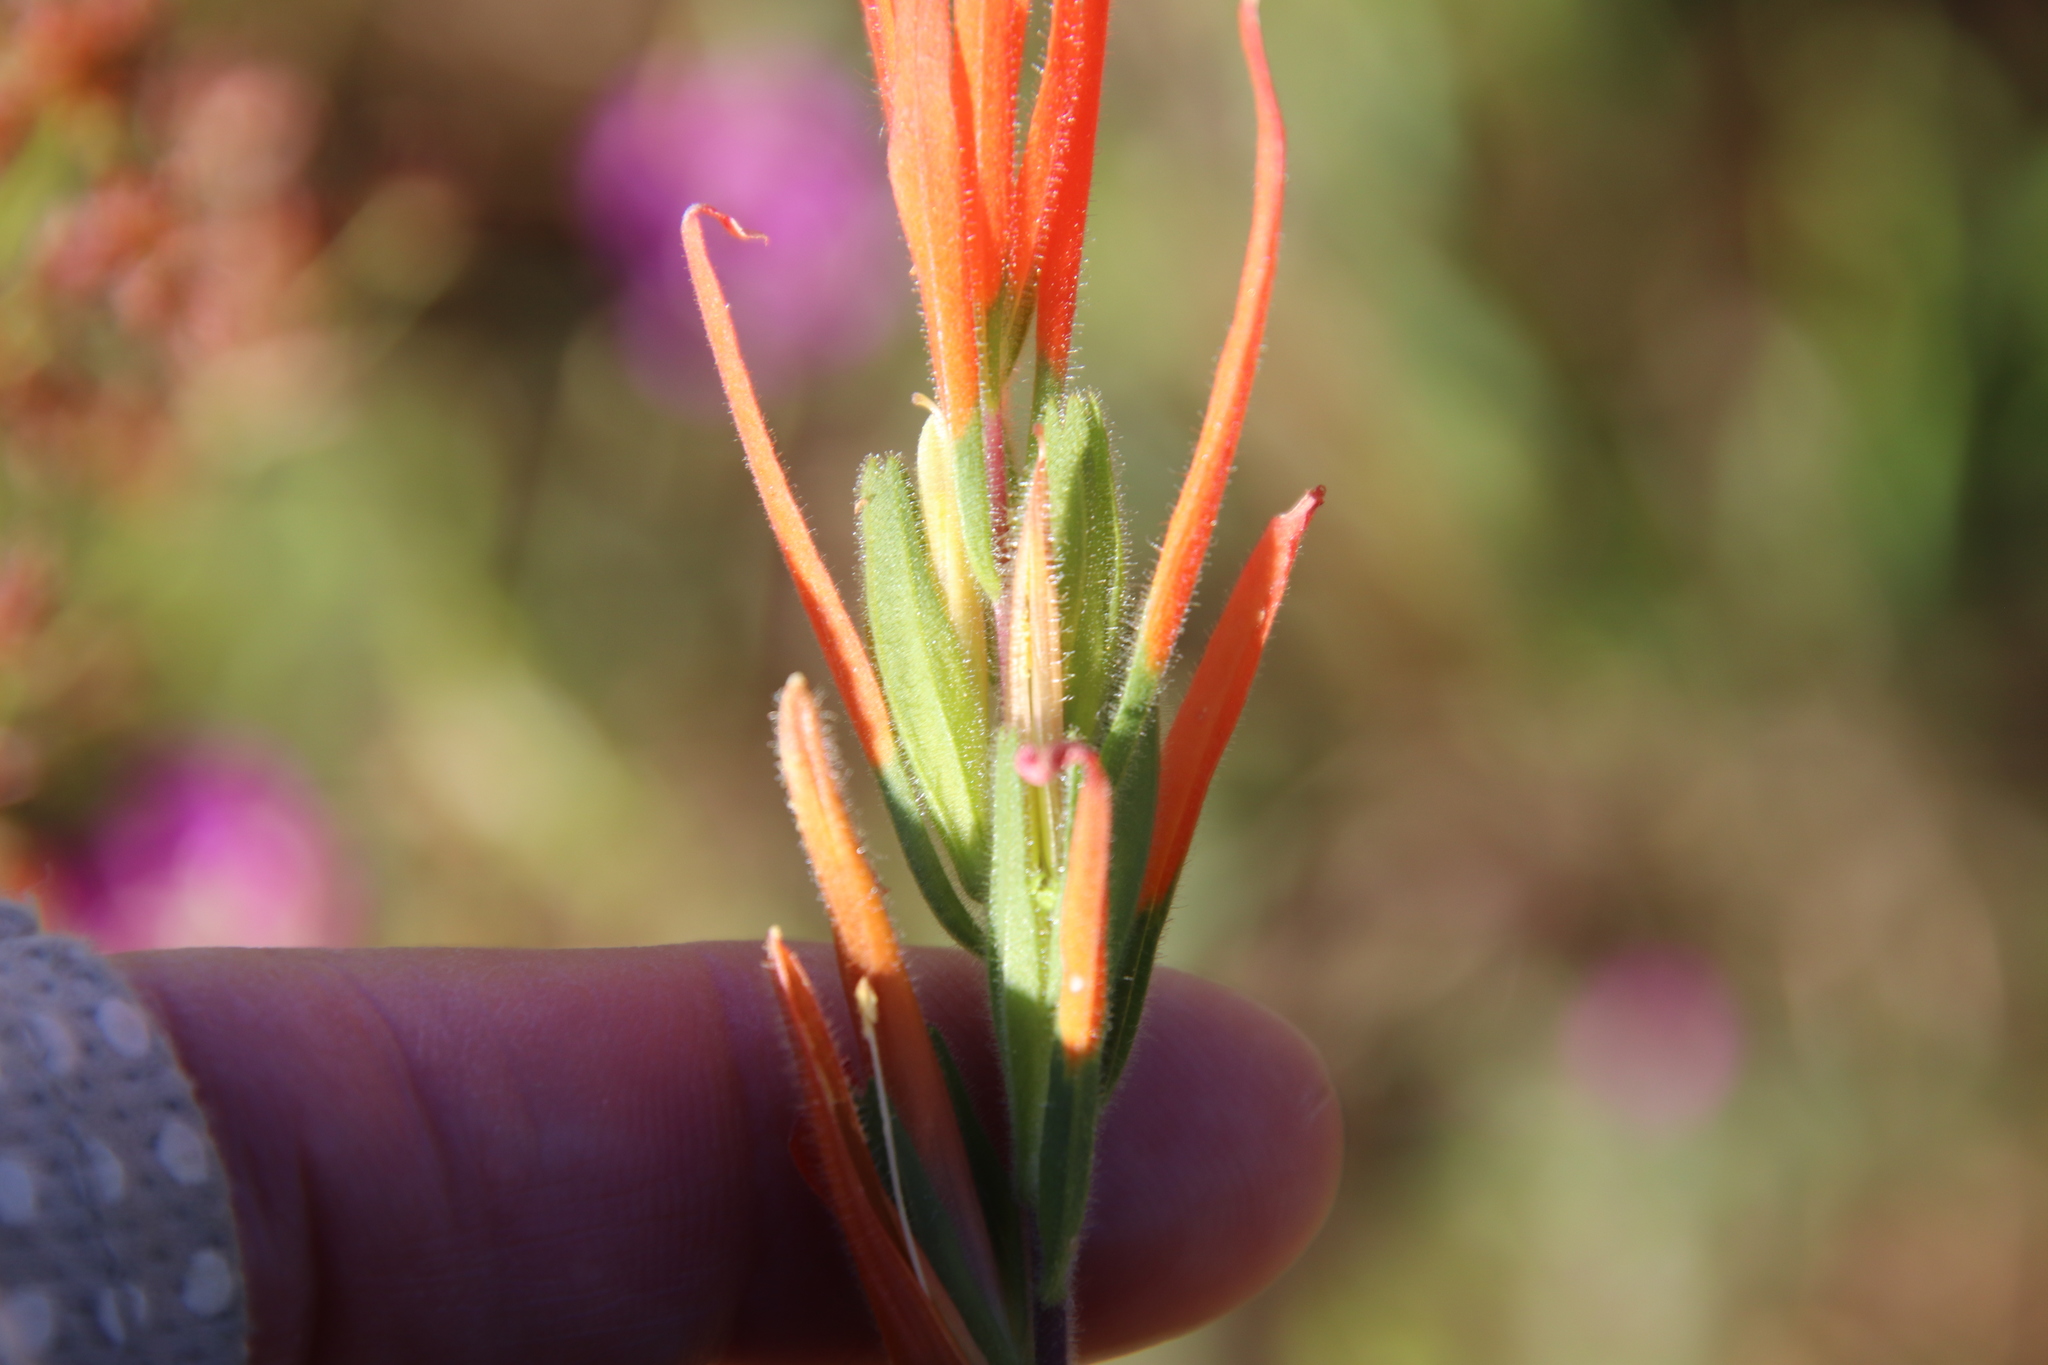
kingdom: Plantae
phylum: Tracheophyta
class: Magnoliopsida
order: Lamiales
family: Orobanchaceae
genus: Castilleja
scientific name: Castilleja minor
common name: Seep paintbrush
